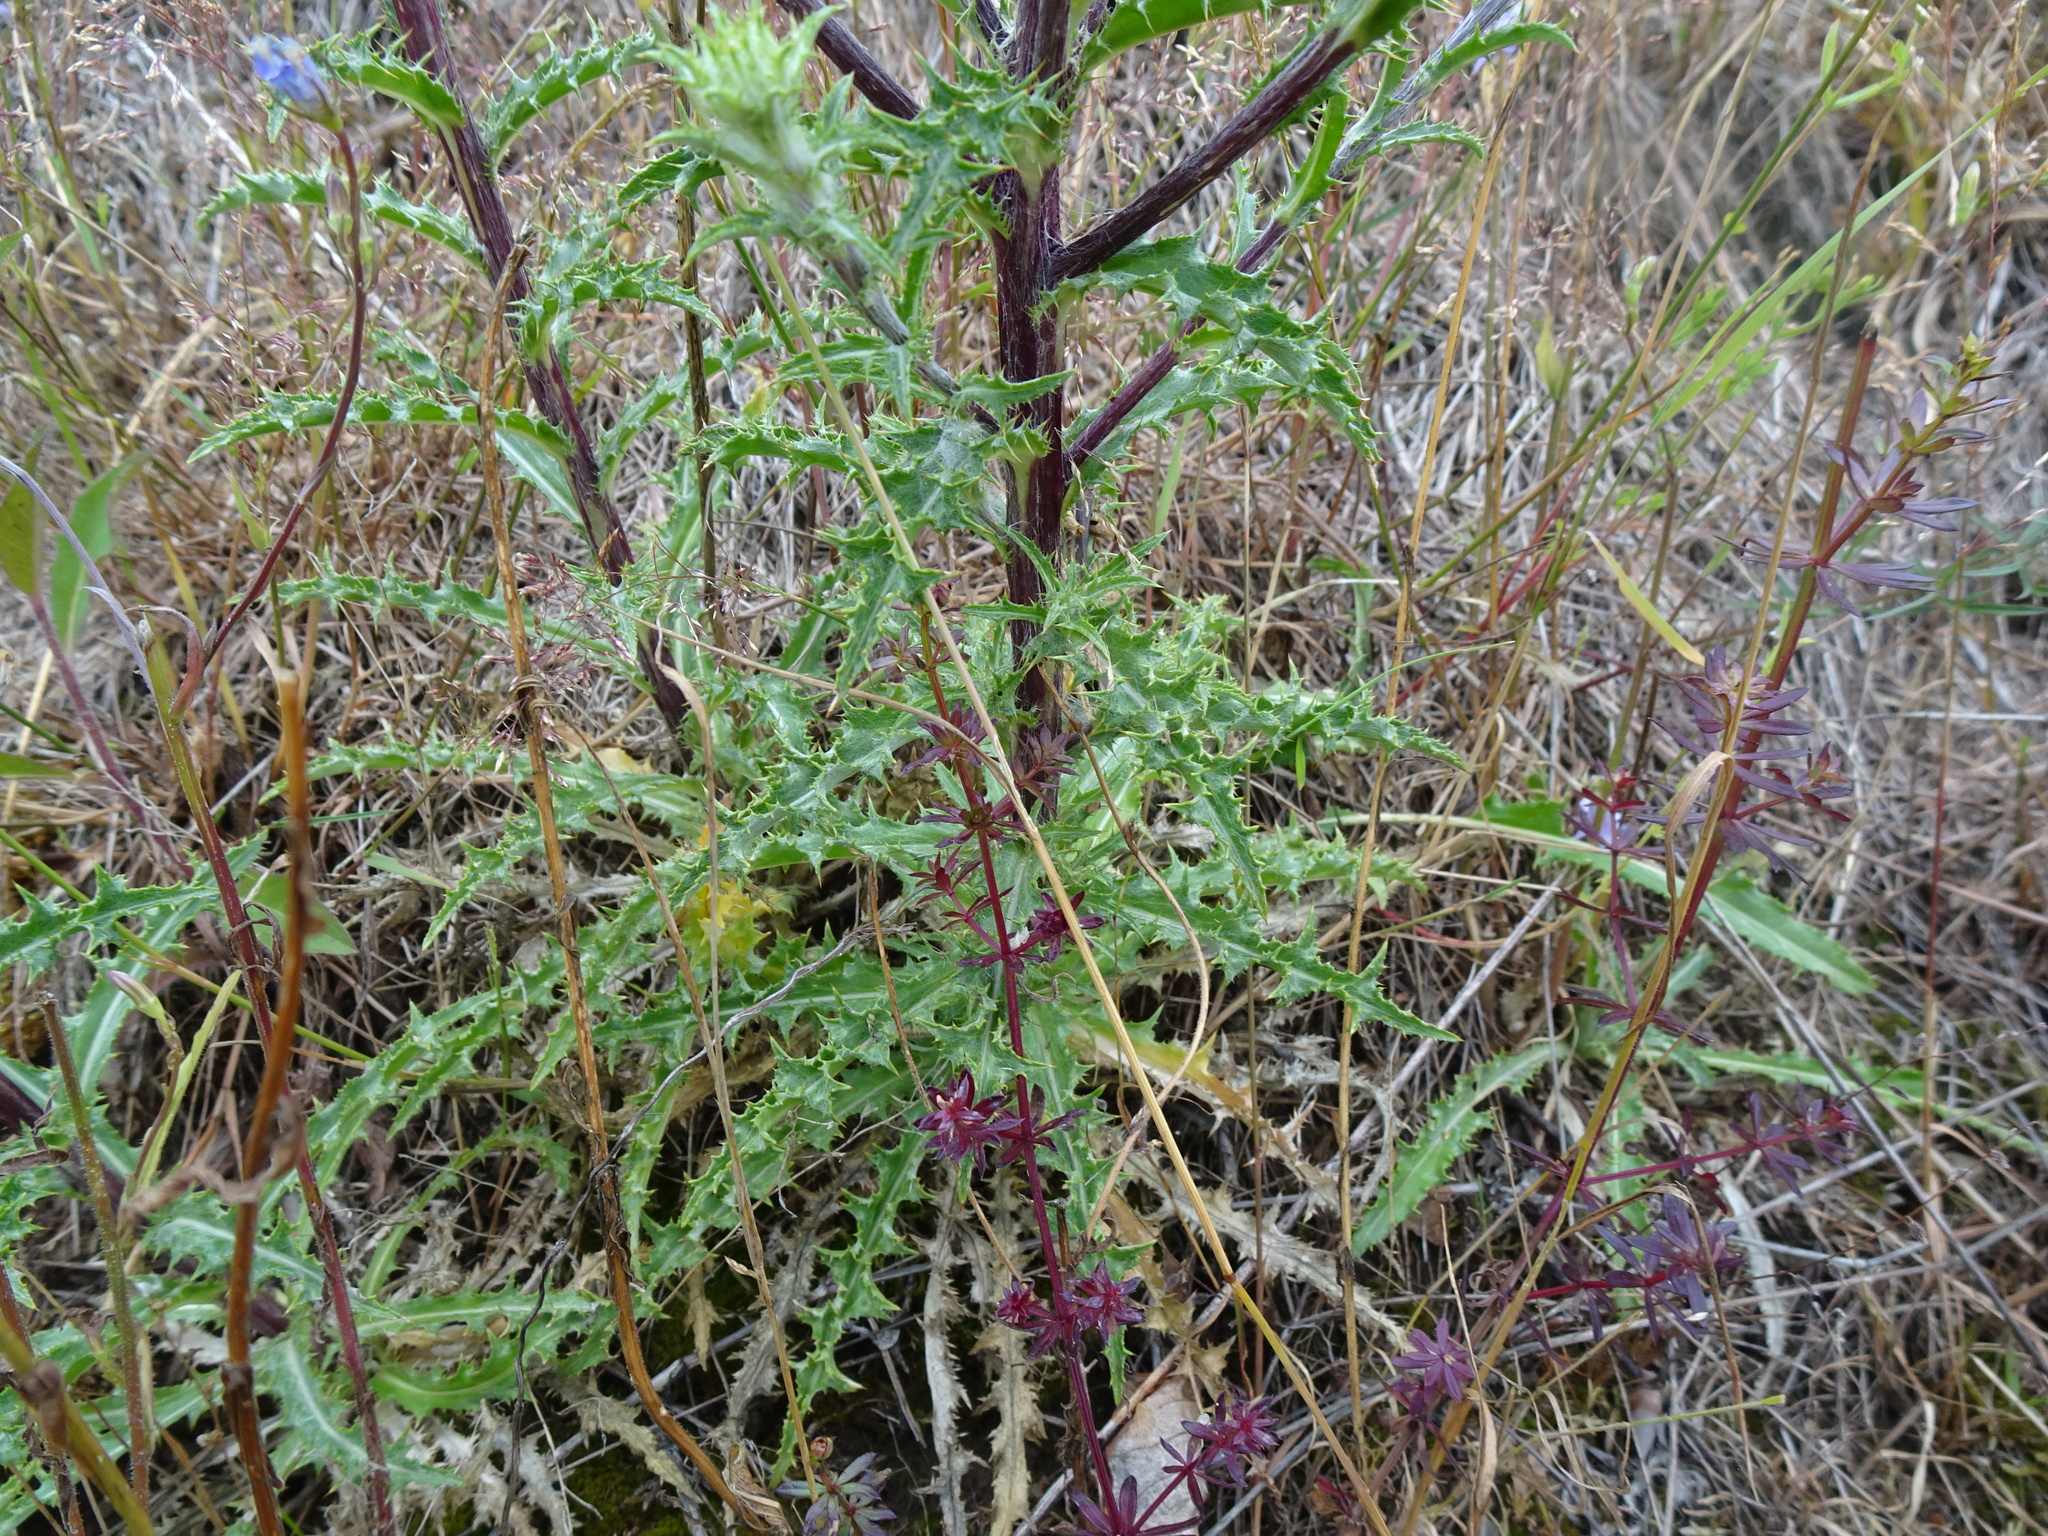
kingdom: Plantae
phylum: Tracheophyta
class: Magnoliopsida
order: Asterales
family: Asteraceae
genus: Carlina
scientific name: Carlina vulgaris
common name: Carline thistle
